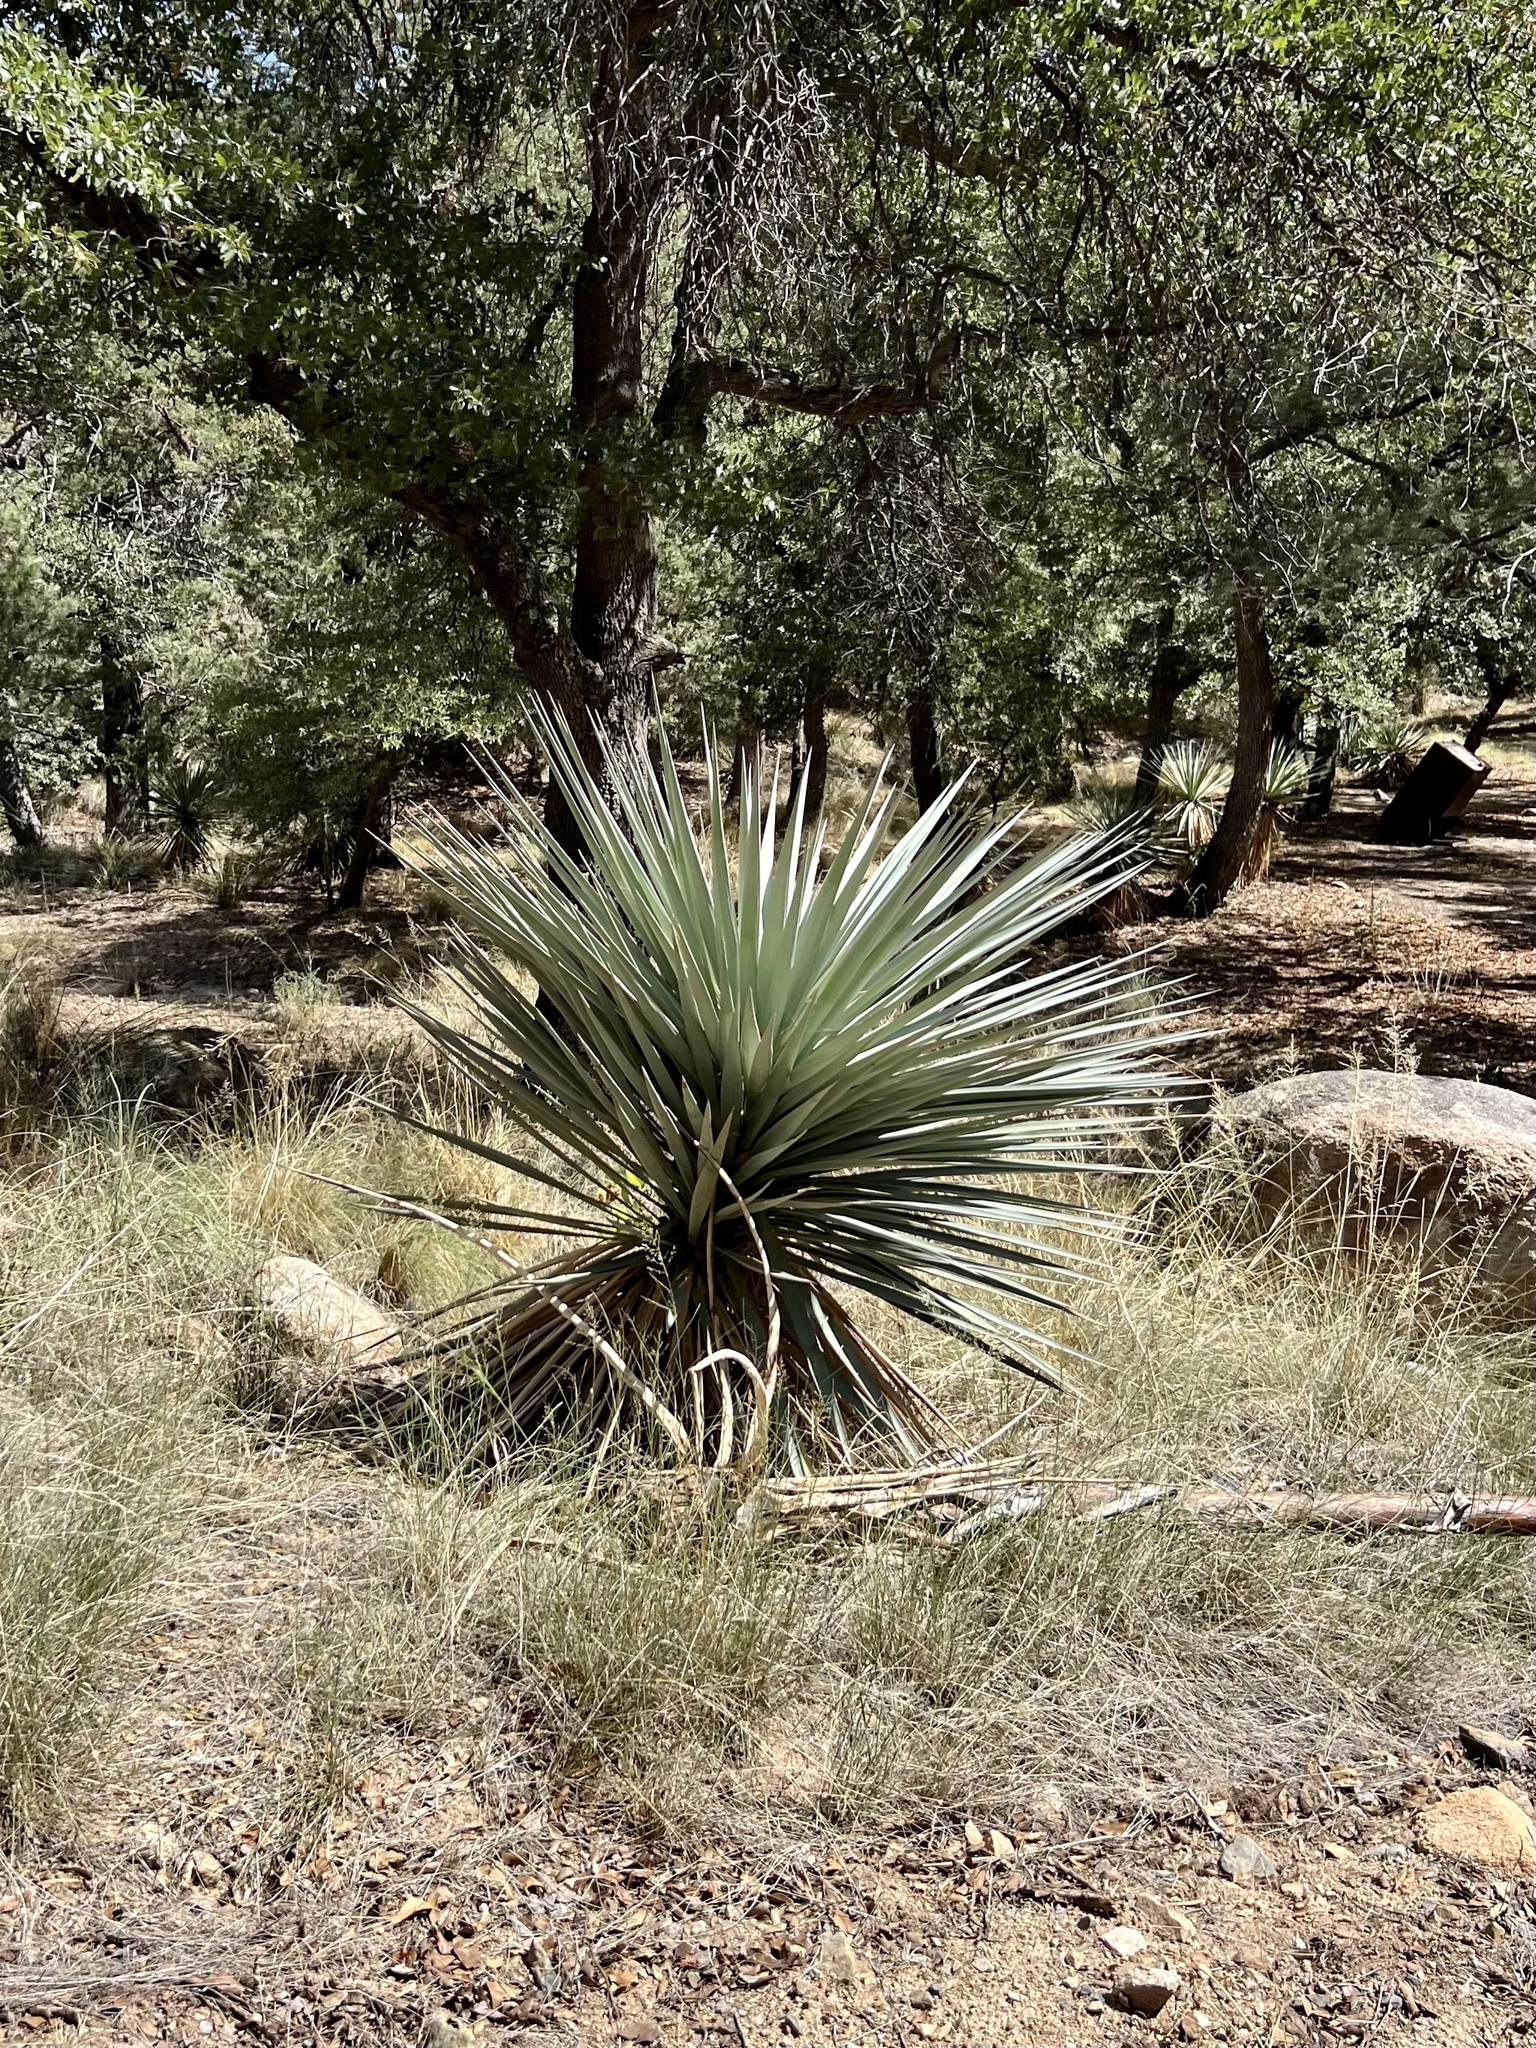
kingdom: Plantae
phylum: Tracheophyta
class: Liliopsida
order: Asparagales
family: Asparagaceae
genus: Yucca
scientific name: Yucca schottii
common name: Hoary yucca
